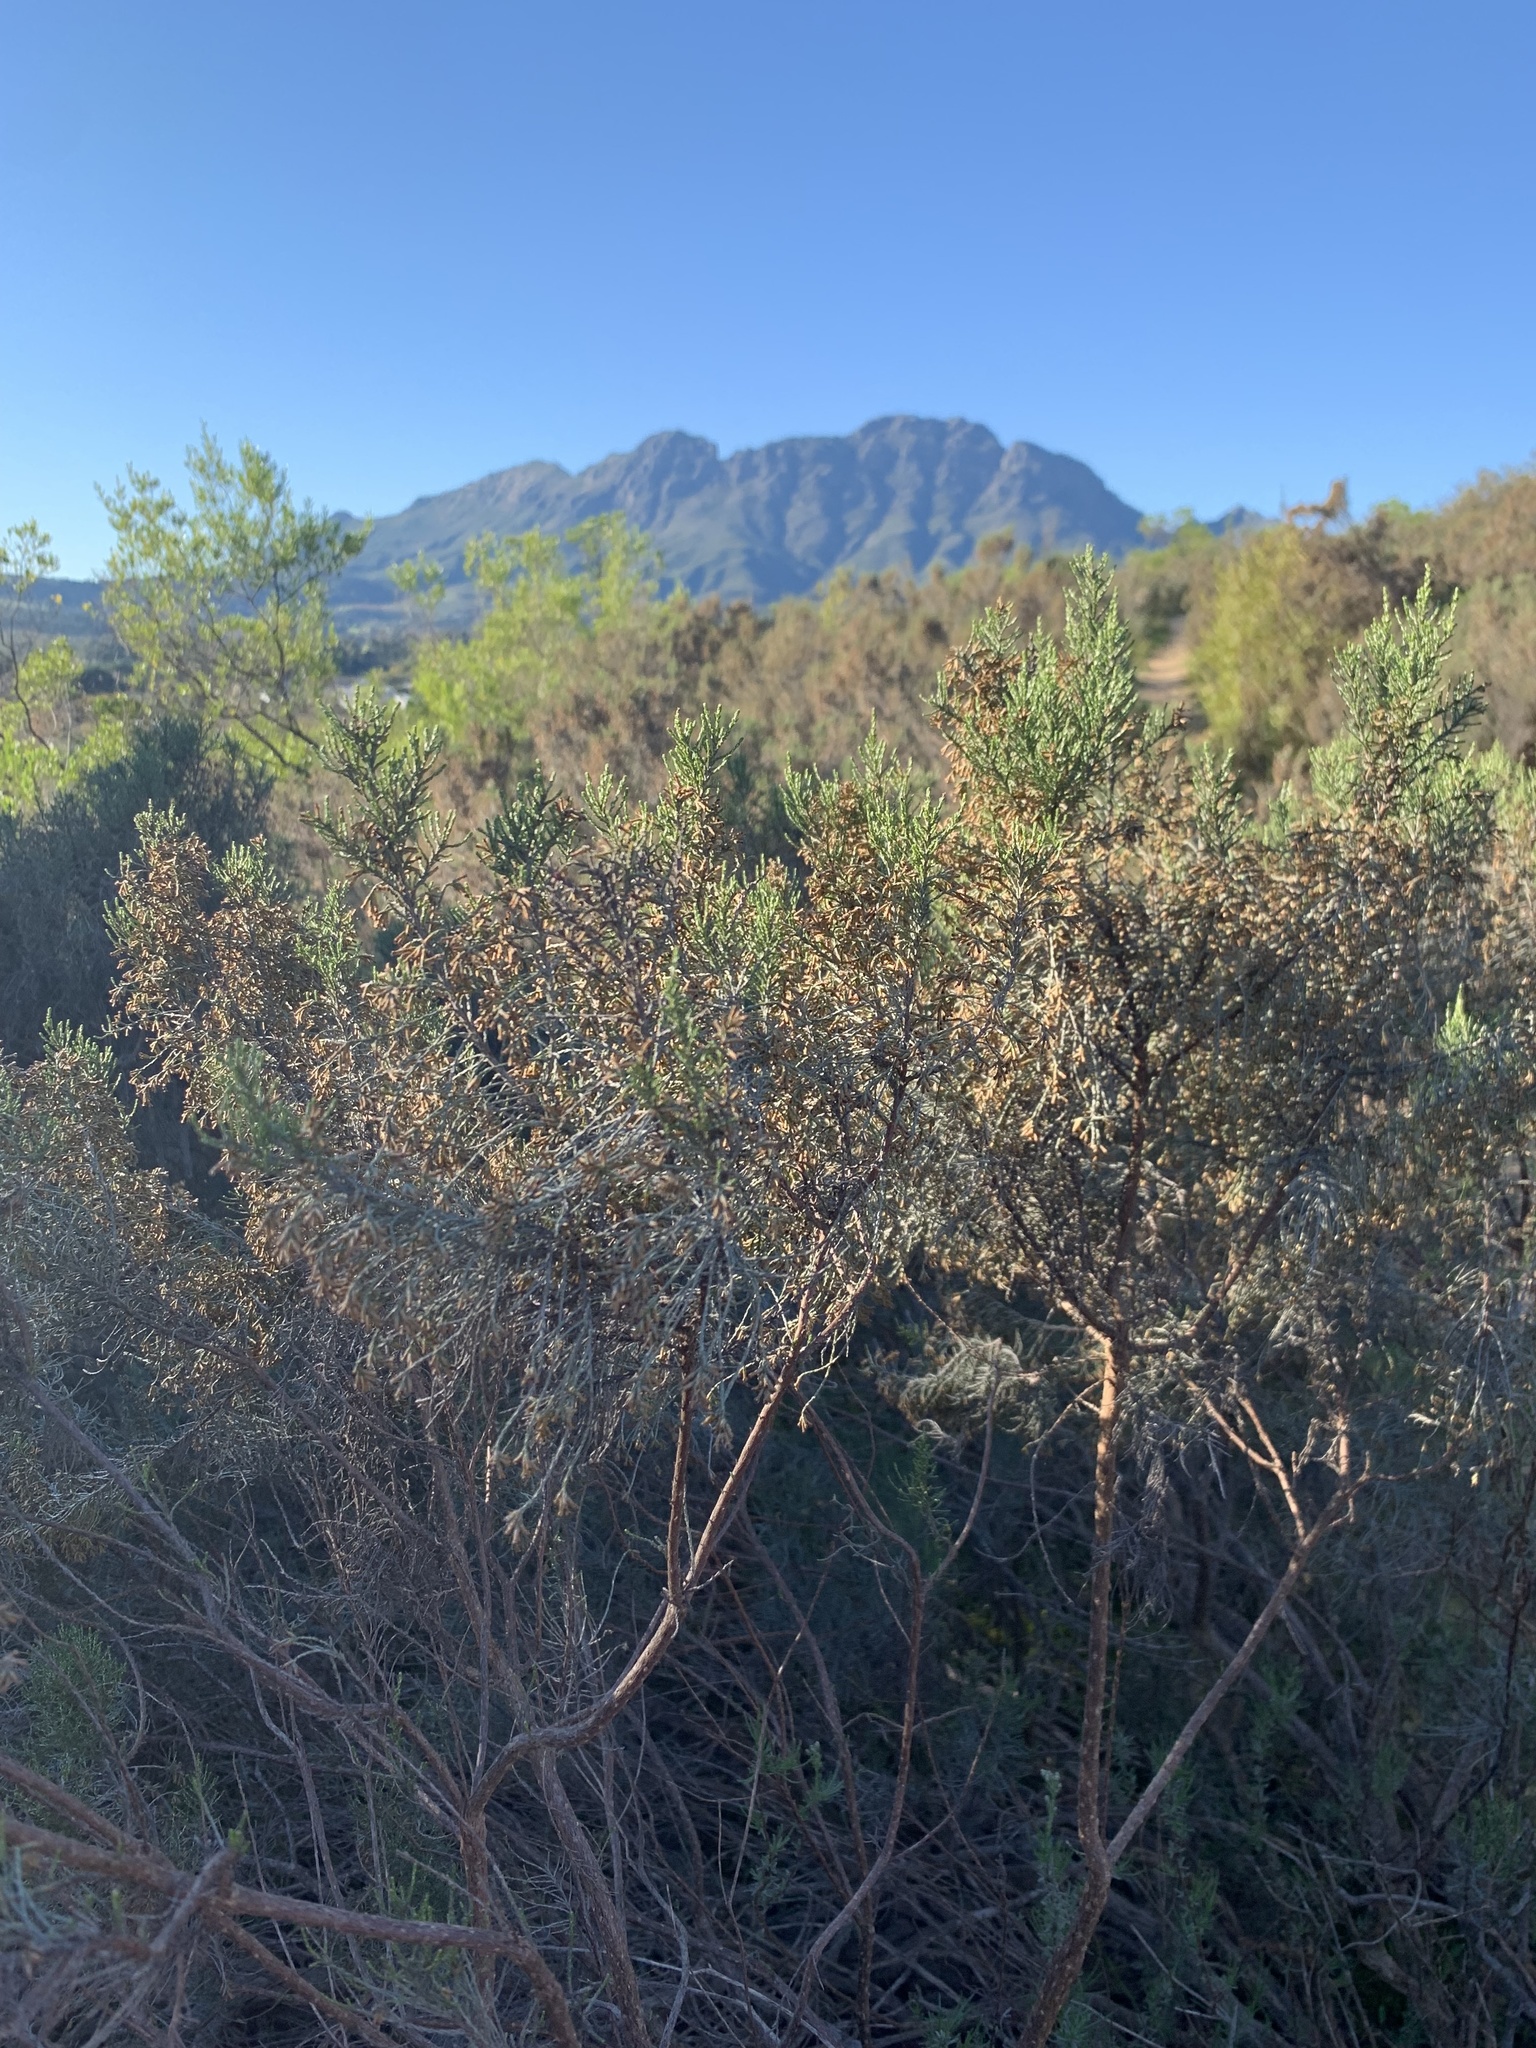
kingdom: Plantae
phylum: Tracheophyta
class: Magnoliopsida
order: Asterales
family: Asteraceae
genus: Dicerothamnus
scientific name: Dicerothamnus rhinocerotis
